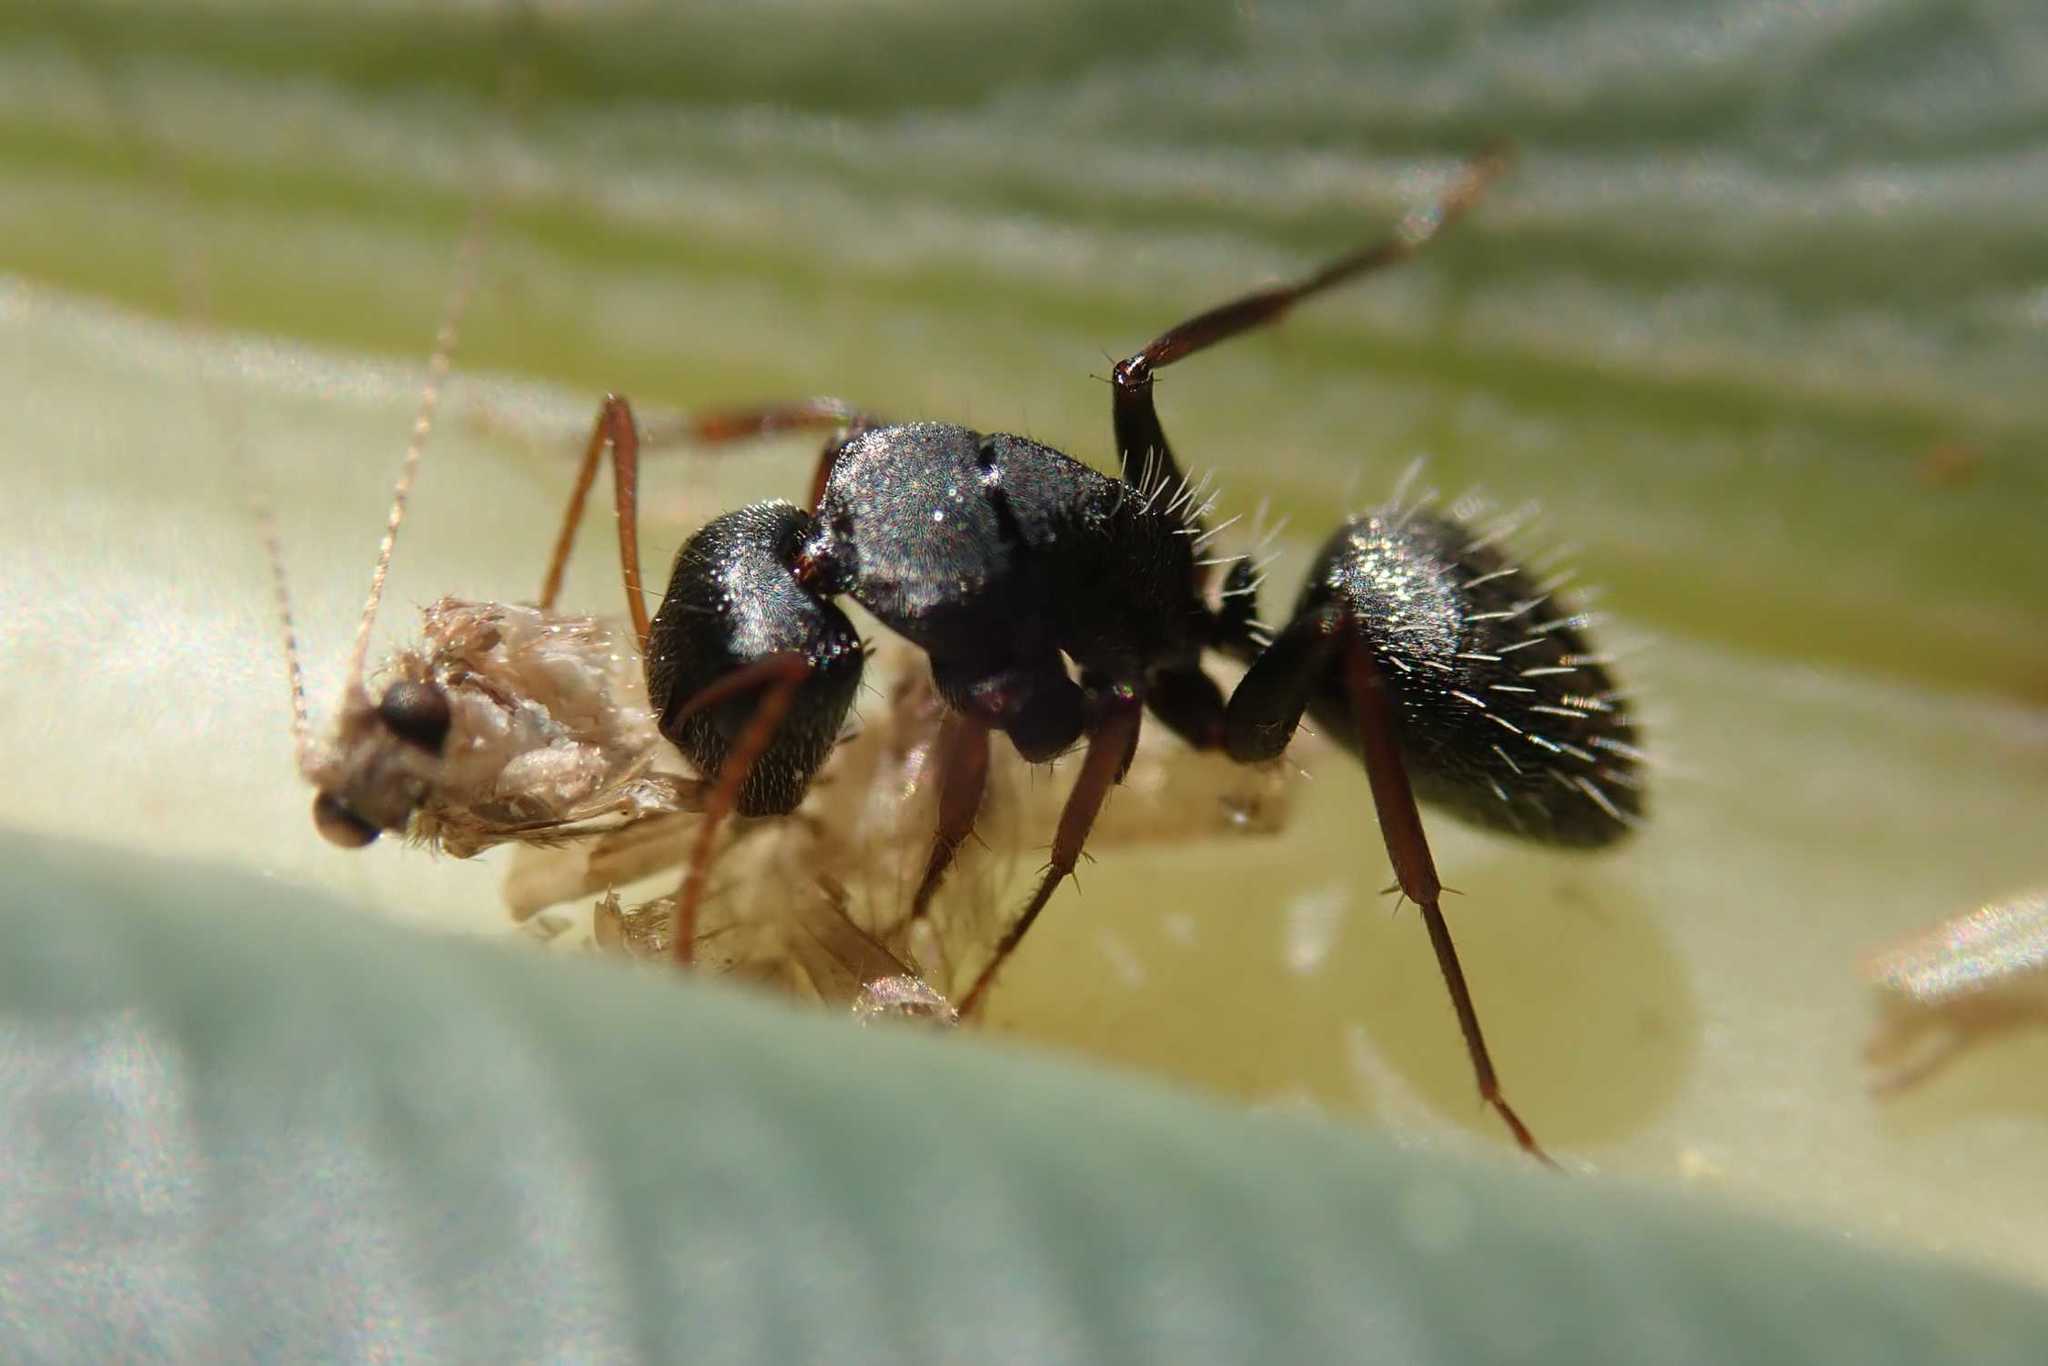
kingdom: Animalia
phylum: Arthropoda
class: Insecta
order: Hymenoptera
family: Formicidae
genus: Camponotus
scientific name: Camponotus grandidieri
